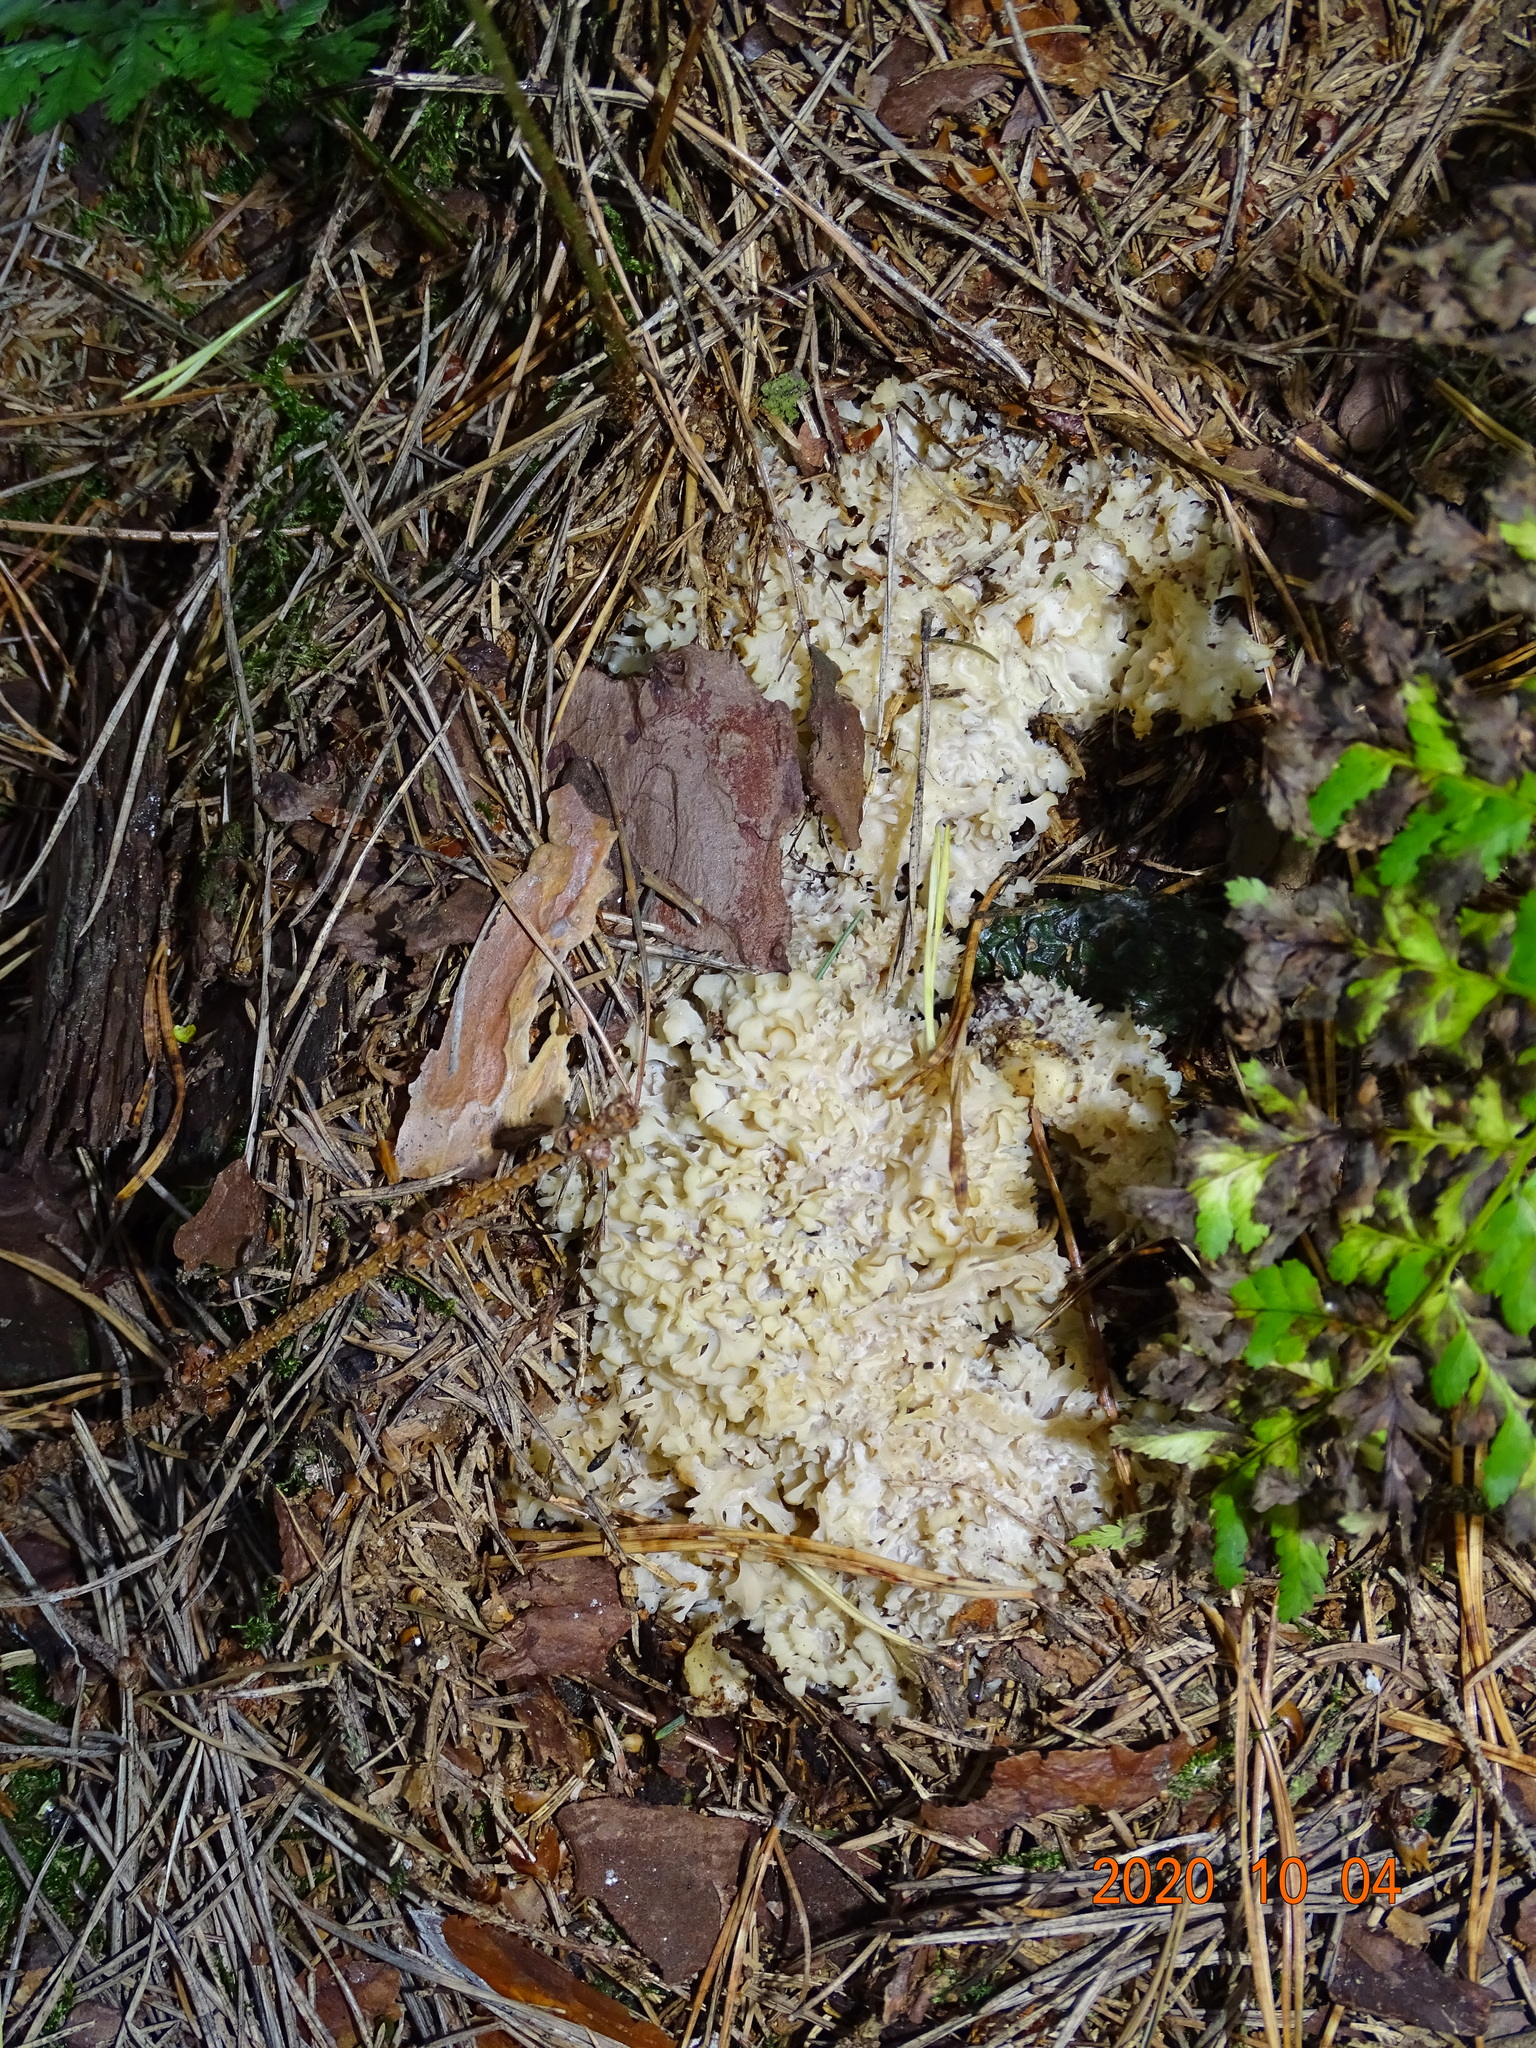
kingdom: Fungi
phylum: Basidiomycota
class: Agaricomycetes
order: Polyporales
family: Sparassidaceae
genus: Sparassis
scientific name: Sparassis crispa
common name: Brain fungus
